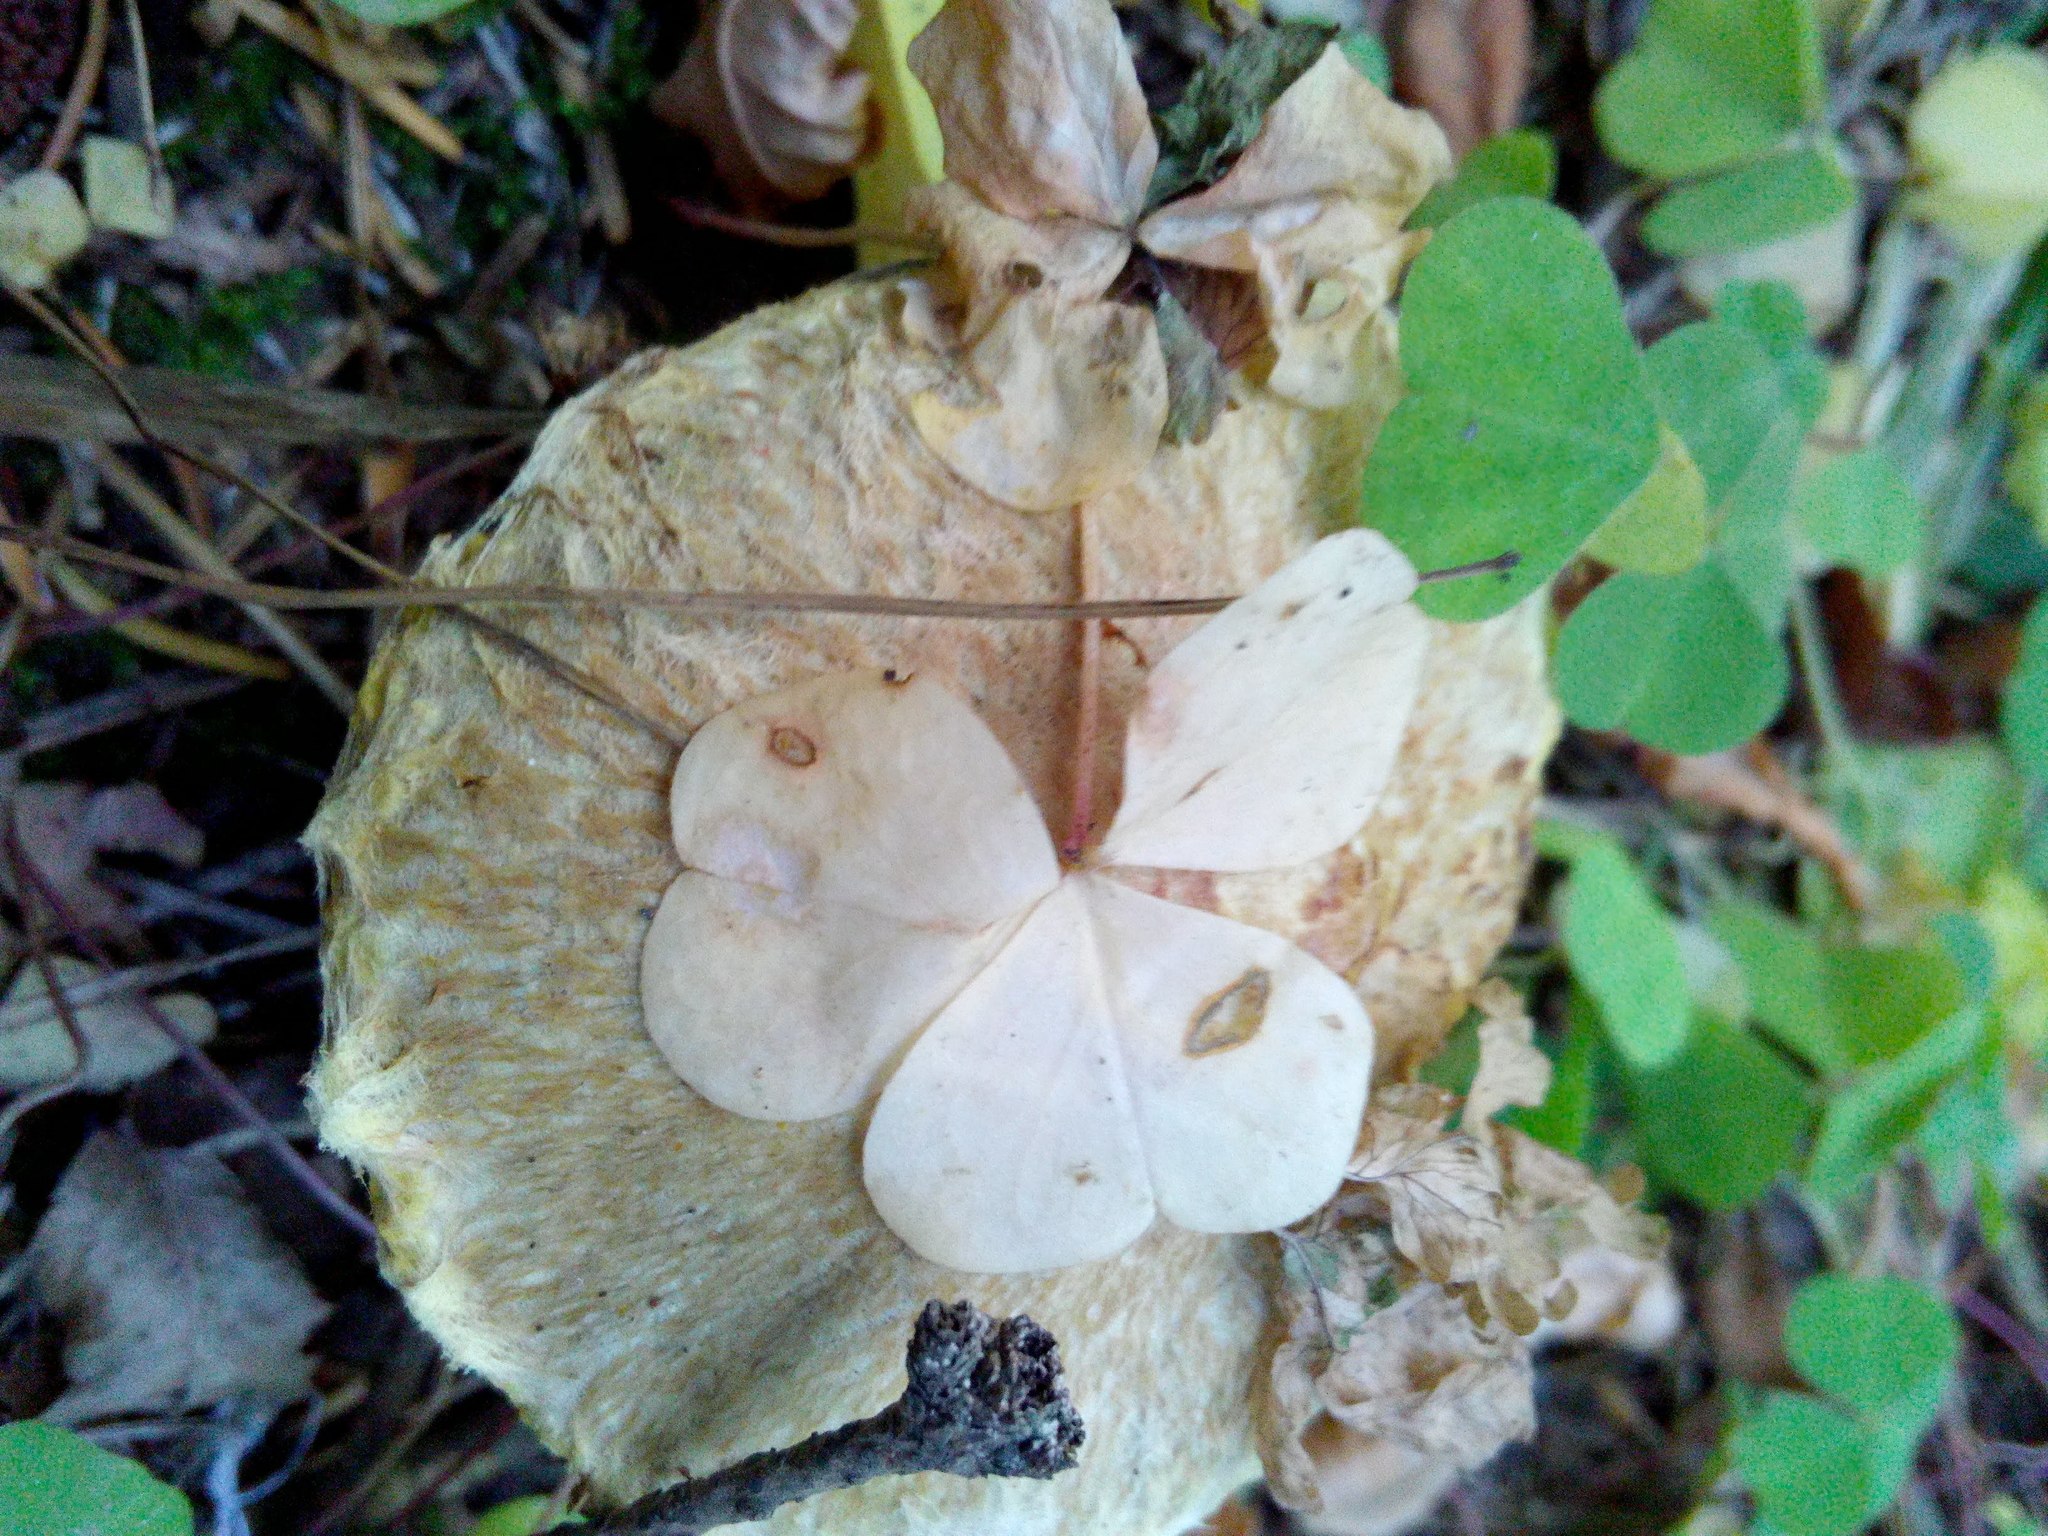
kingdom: Fungi
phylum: Basidiomycota
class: Agaricomycetes
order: Boletales
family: Suillaceae
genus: Suillus
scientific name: Suillus americanus
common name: Chicken fat mushroom
